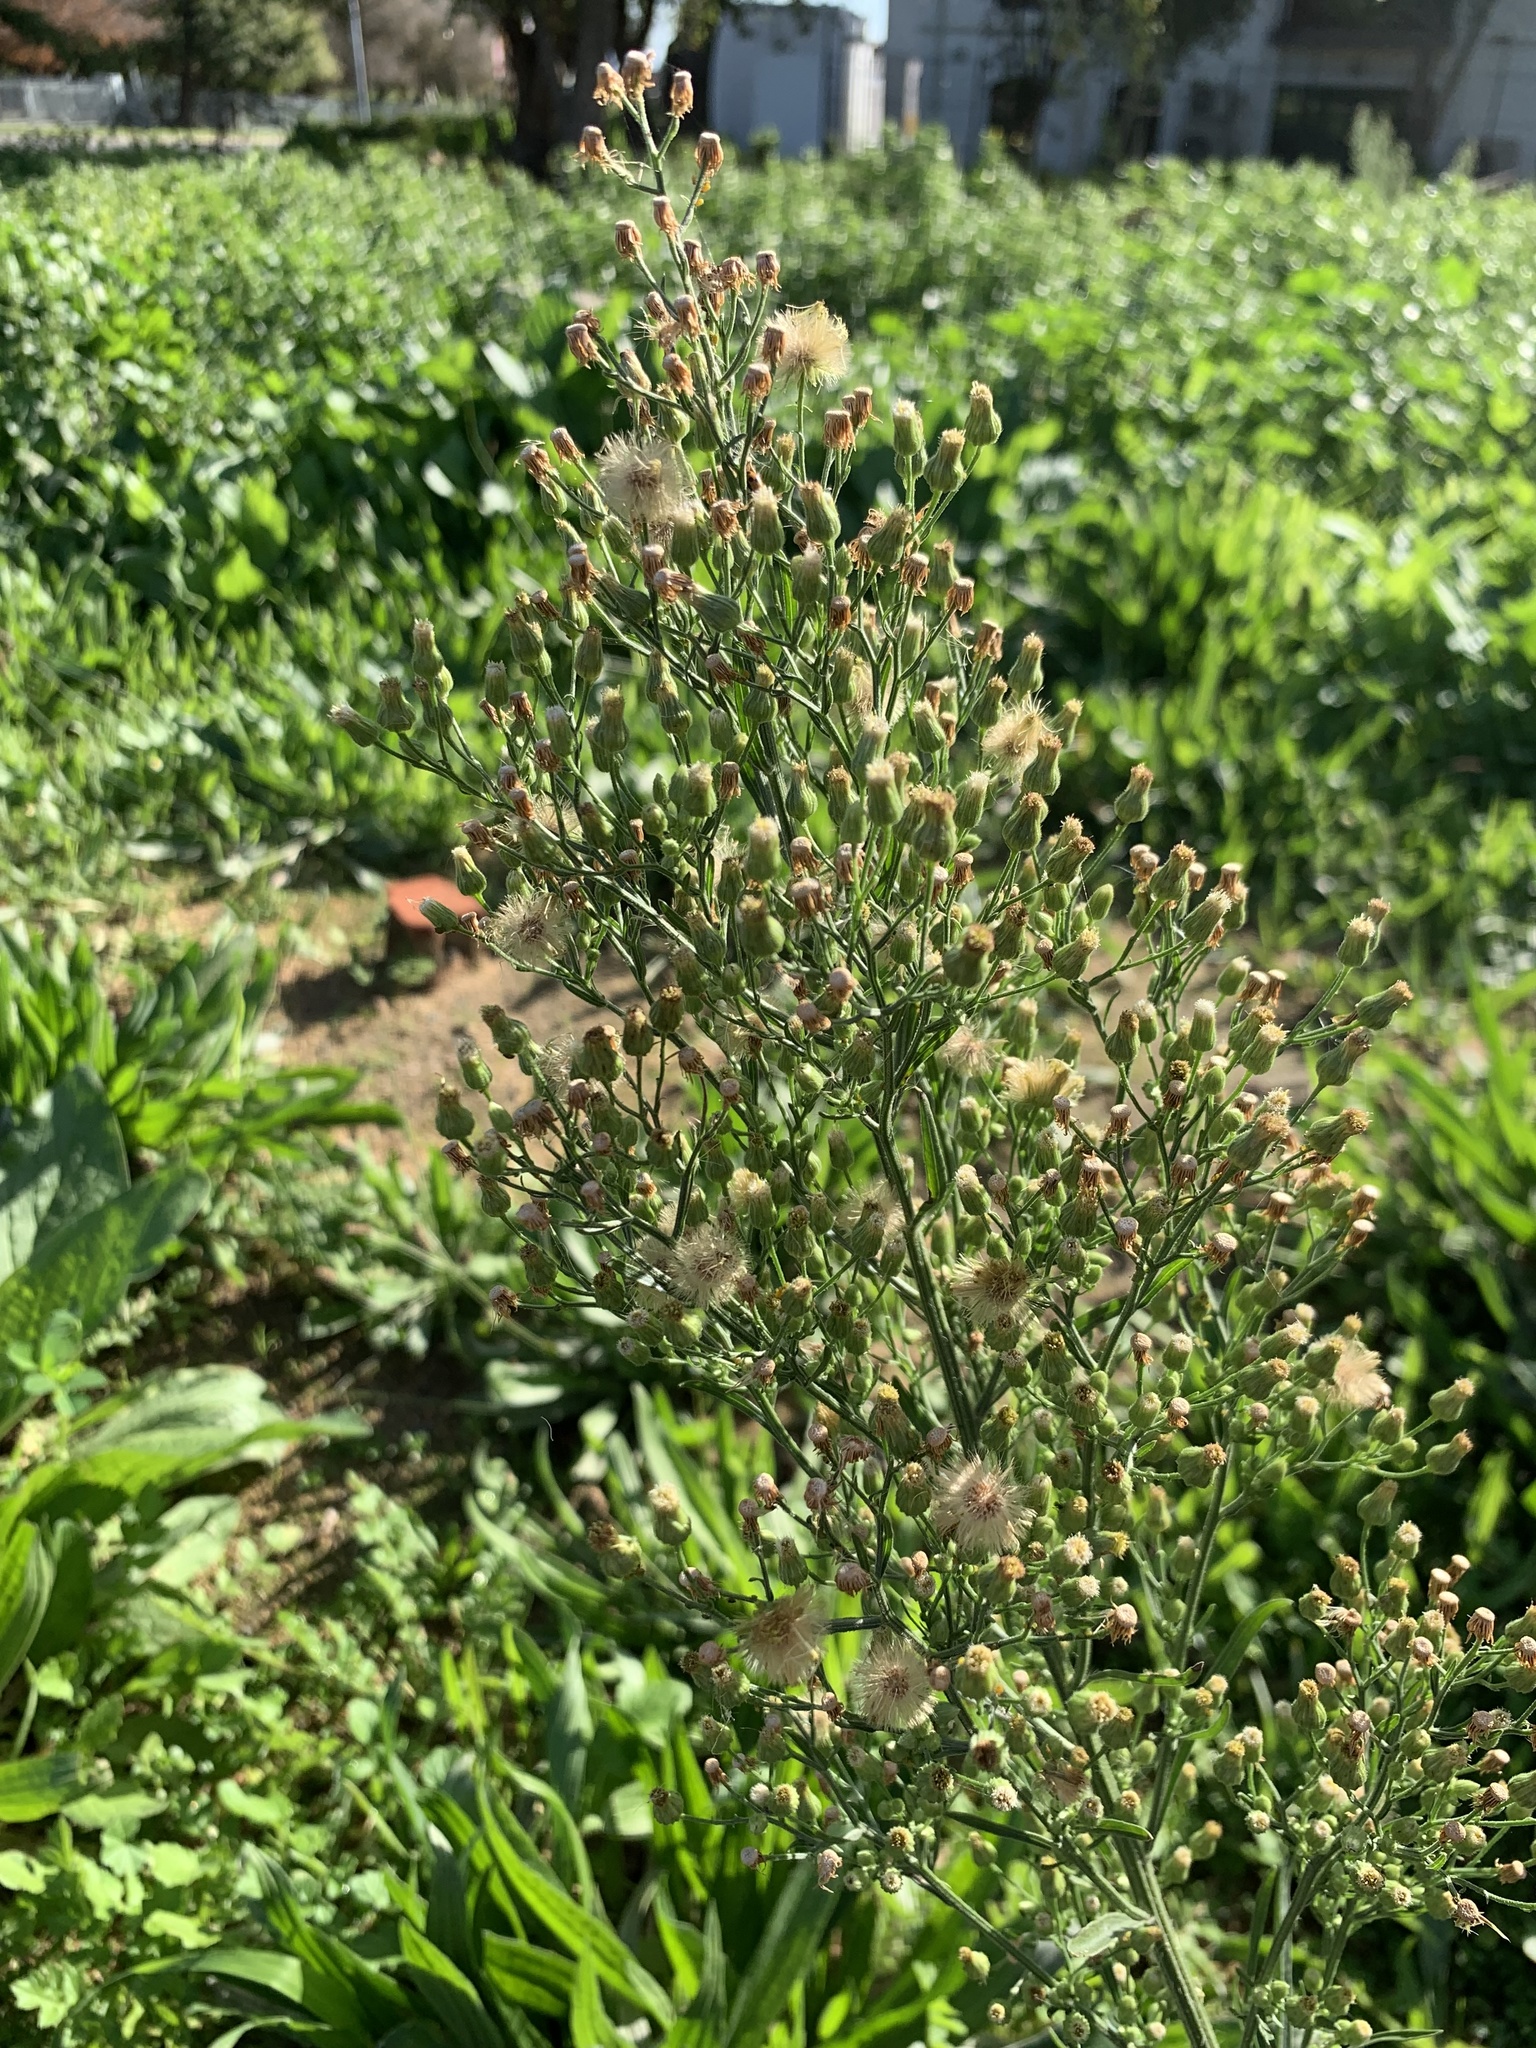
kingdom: Plantae
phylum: Tracheophyta
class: Magnoliopsida
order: Asterales
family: Asteraceae
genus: Erigeron
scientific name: Erigeron sumatrensis
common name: Daisy
